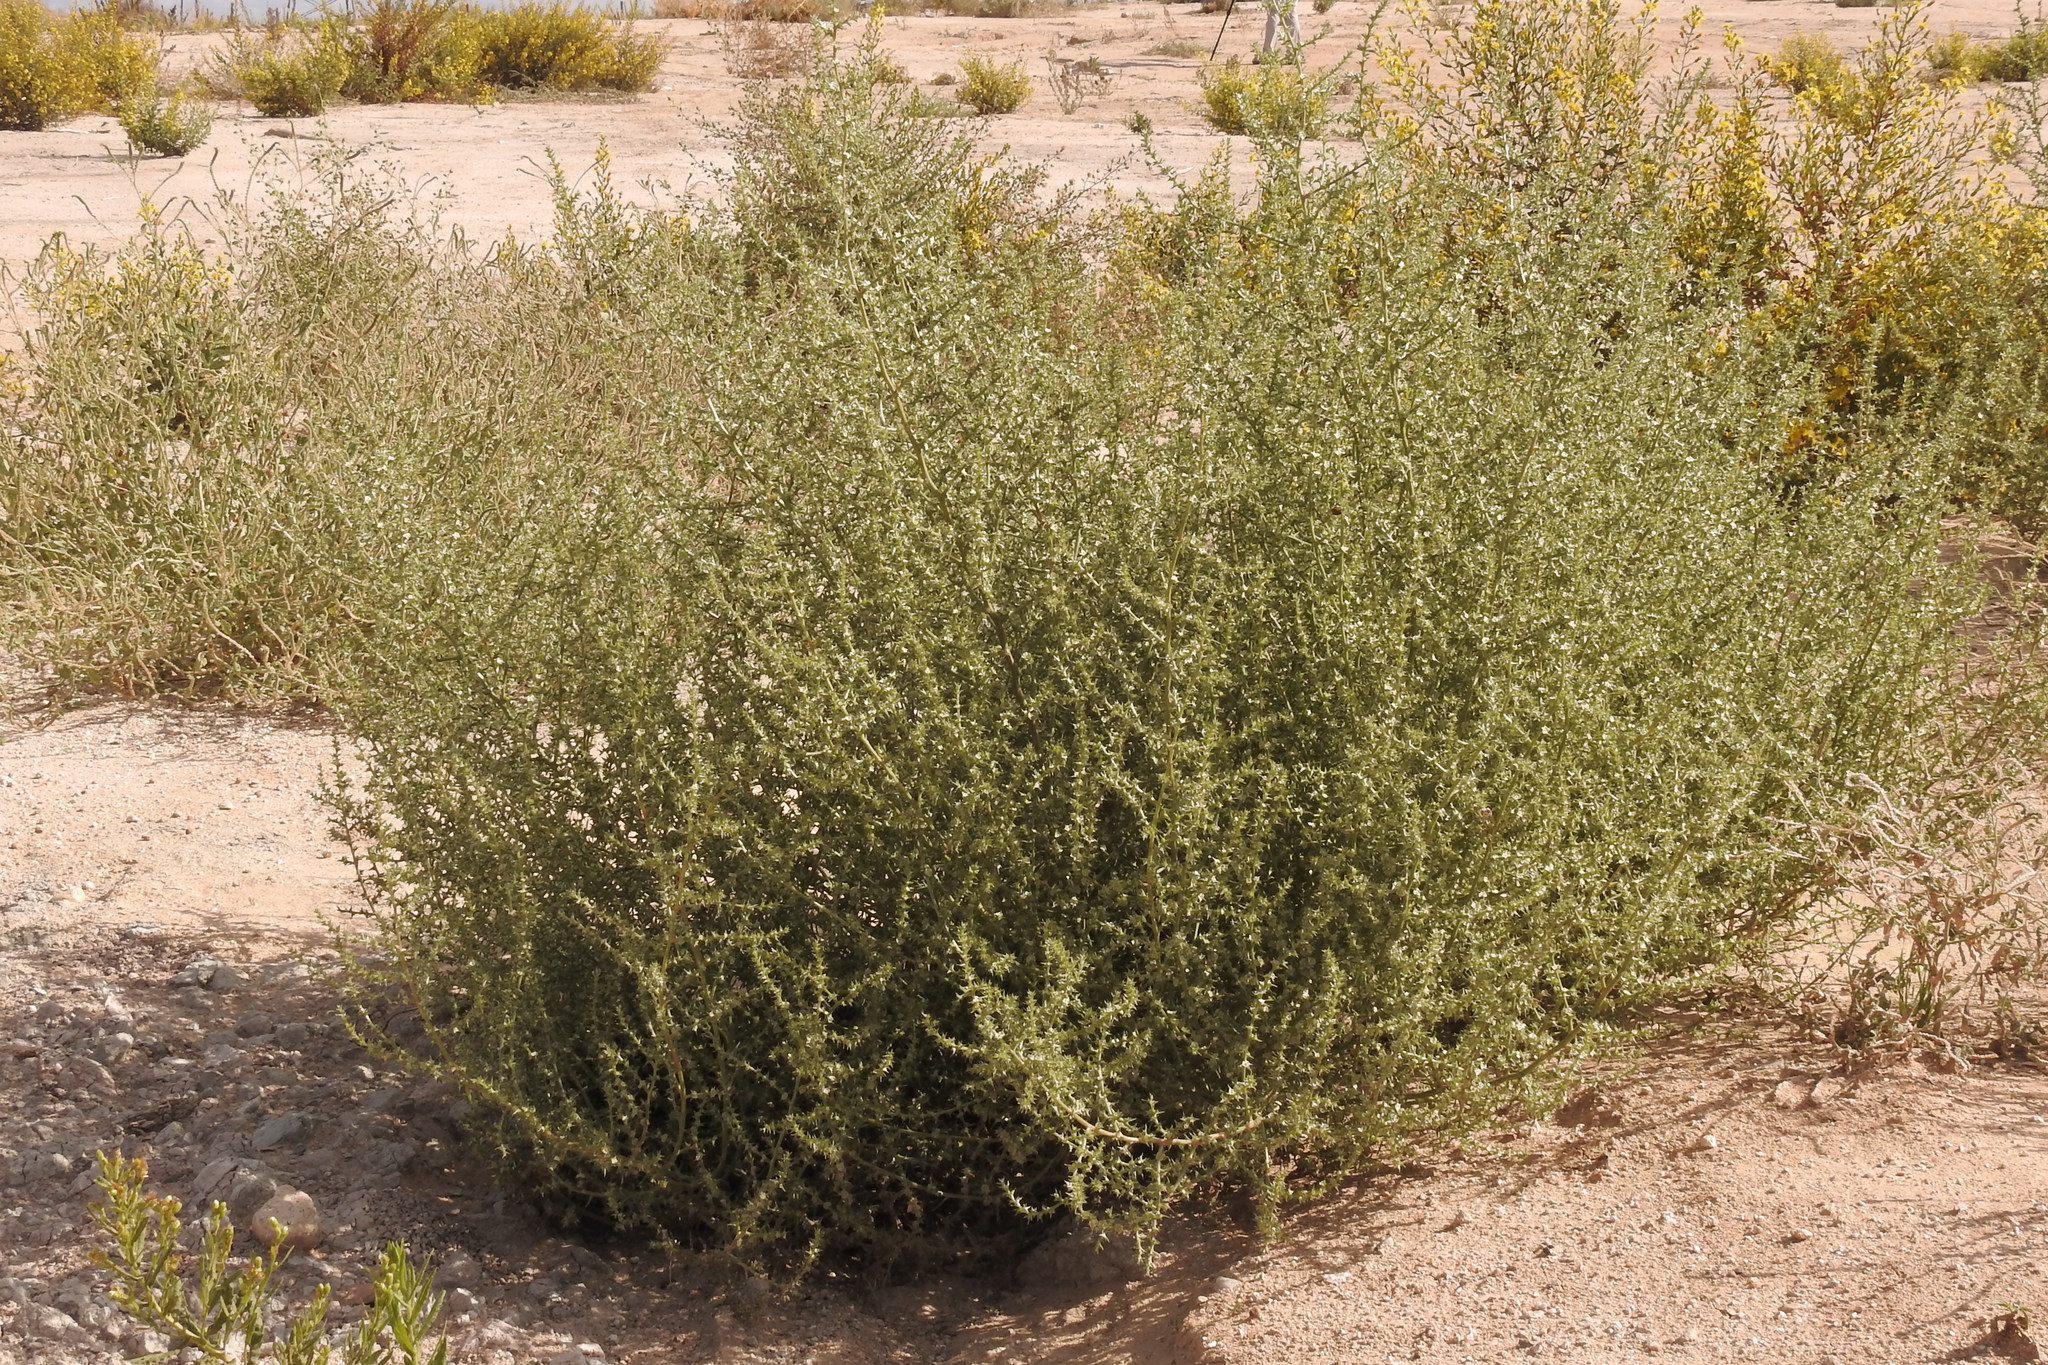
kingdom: Plantae
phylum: Tracheophyta
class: Magnoliopsida
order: Caryophyllales
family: Amaranthaceae
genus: Salsola
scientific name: Salsola kali
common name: Saltwort
